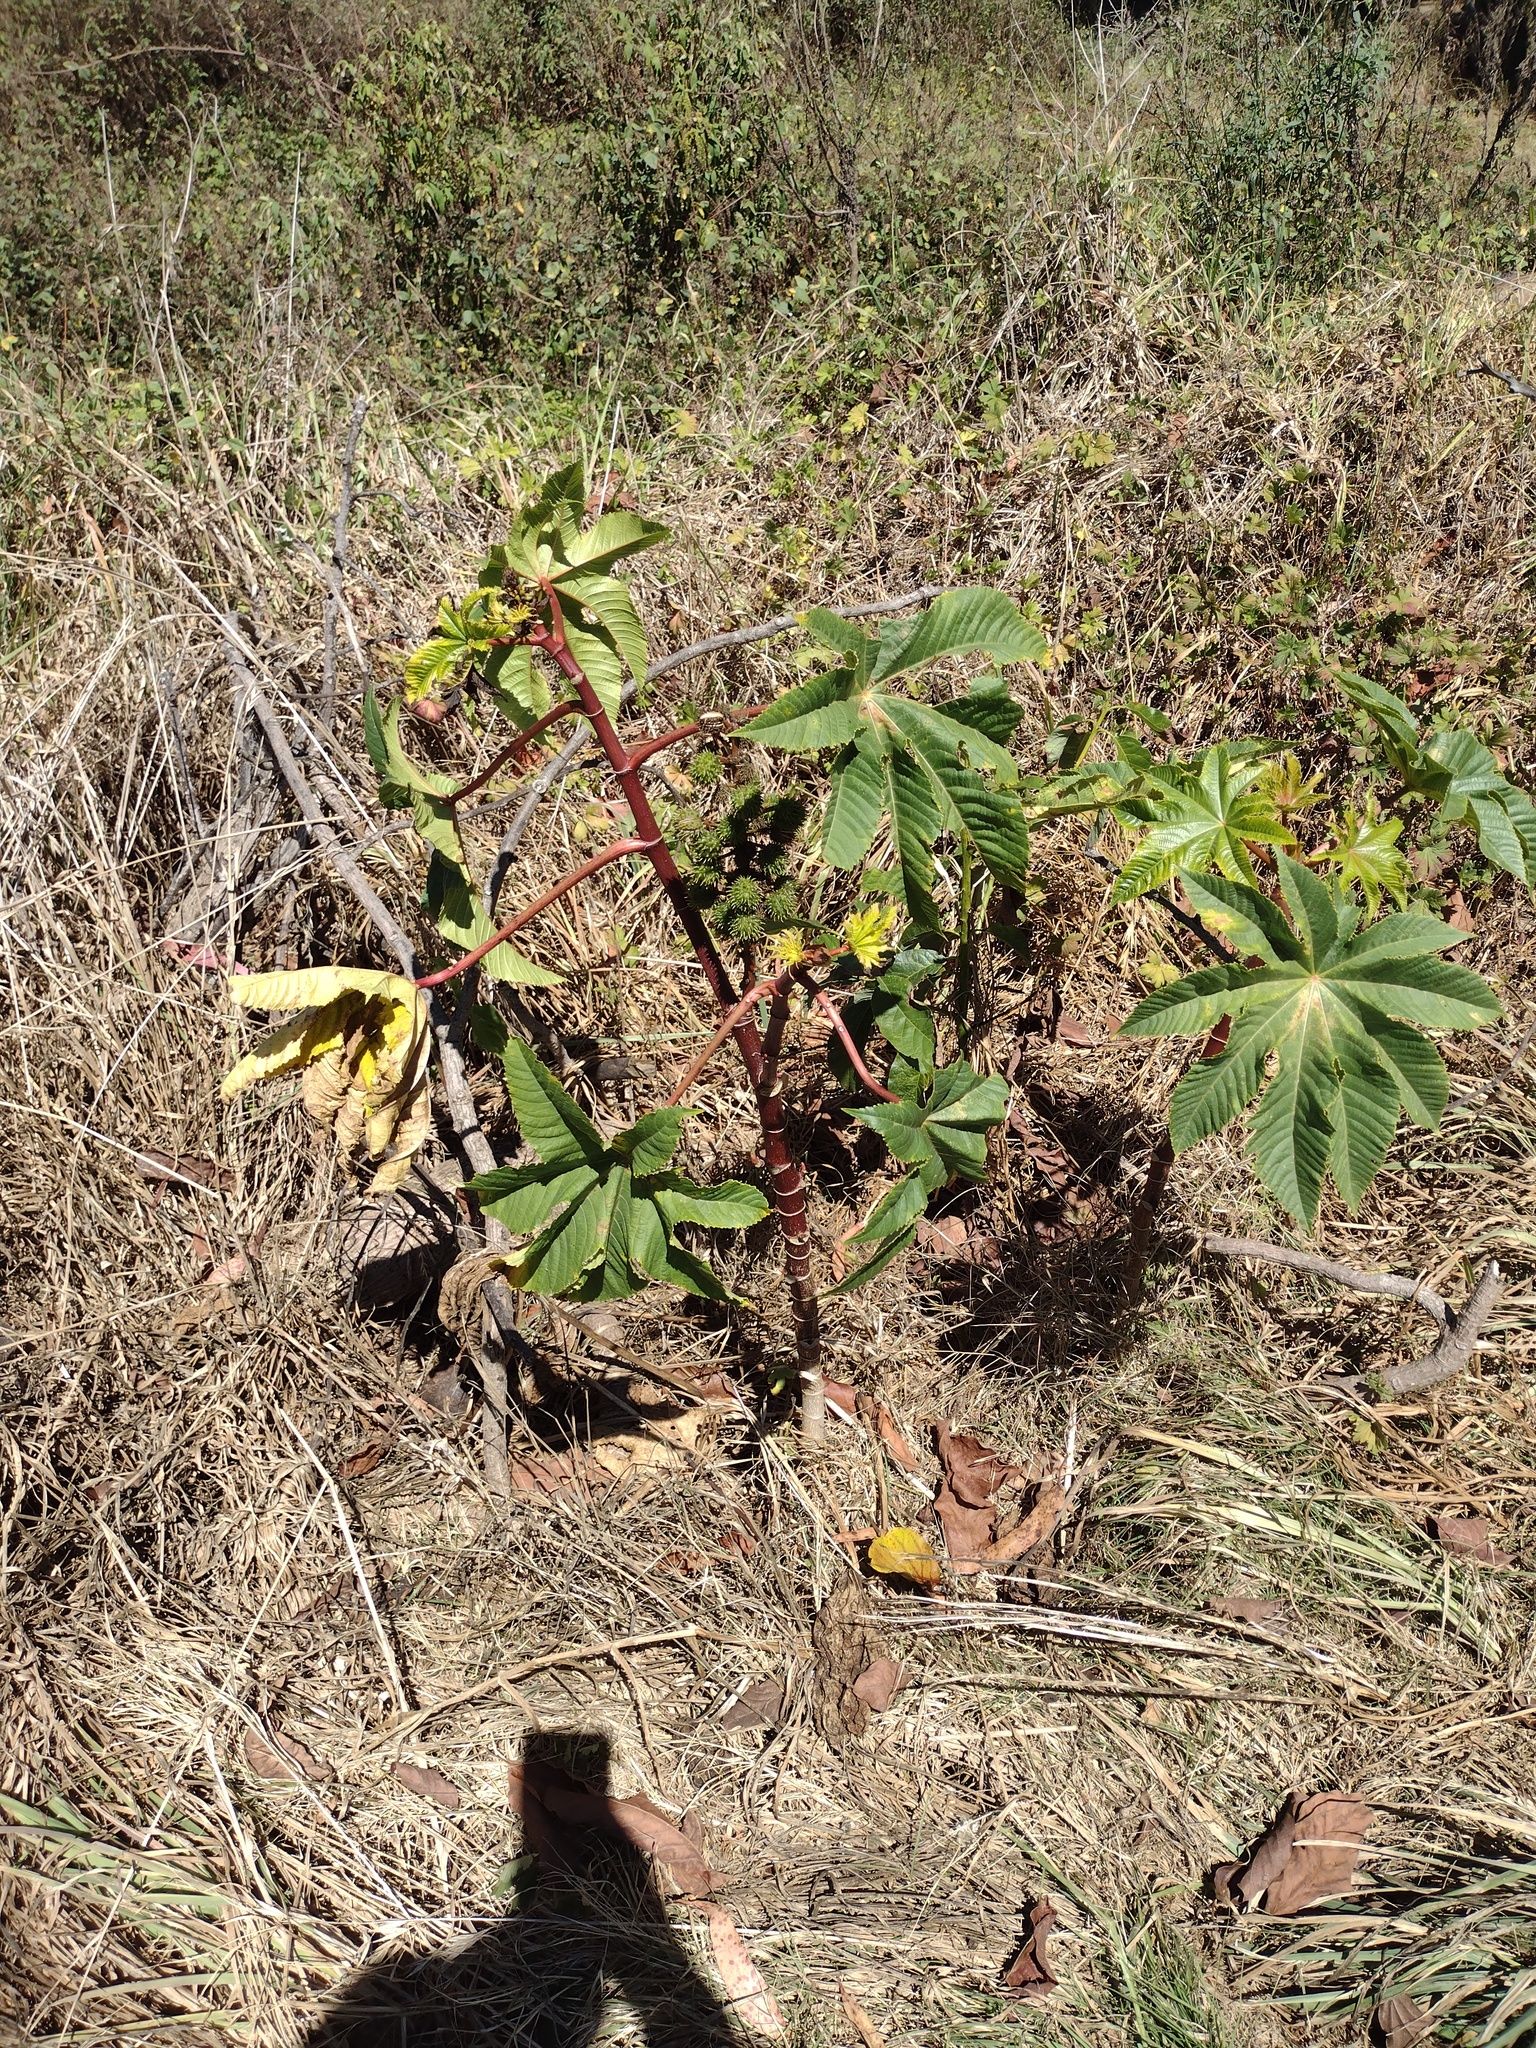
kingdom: Plantae
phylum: Tracheophyta
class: Magnoliopsida
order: Malpighiales
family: Euphorbiaceae
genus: Ricinus
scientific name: Ricinus communis
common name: Castor-oil-plant
